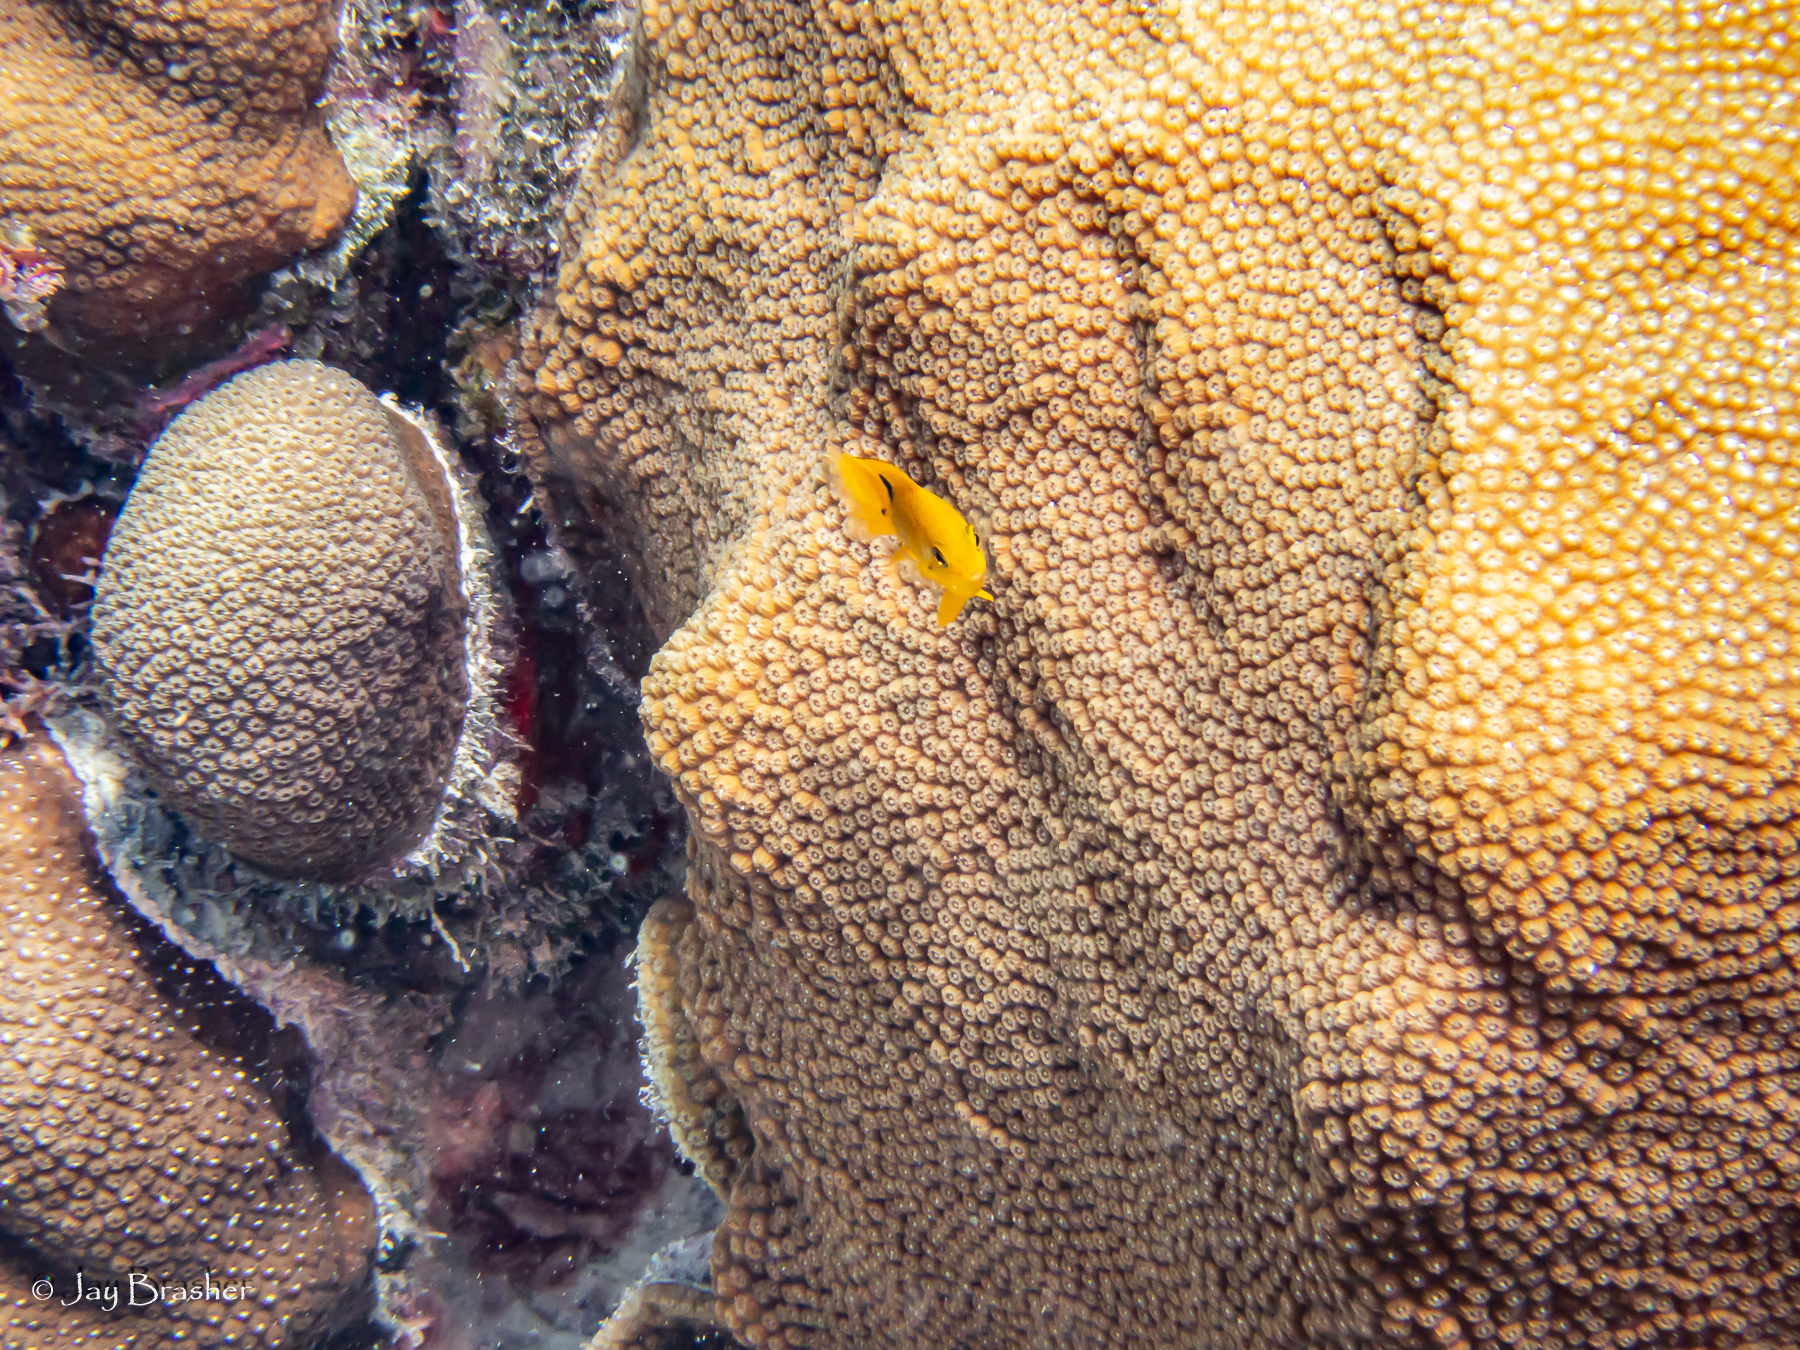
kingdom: Animalia
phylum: Chordata
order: Perciformes
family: Pomacentridae
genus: Stegastes
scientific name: Stegastes planifrons
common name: Threespot damselfish
